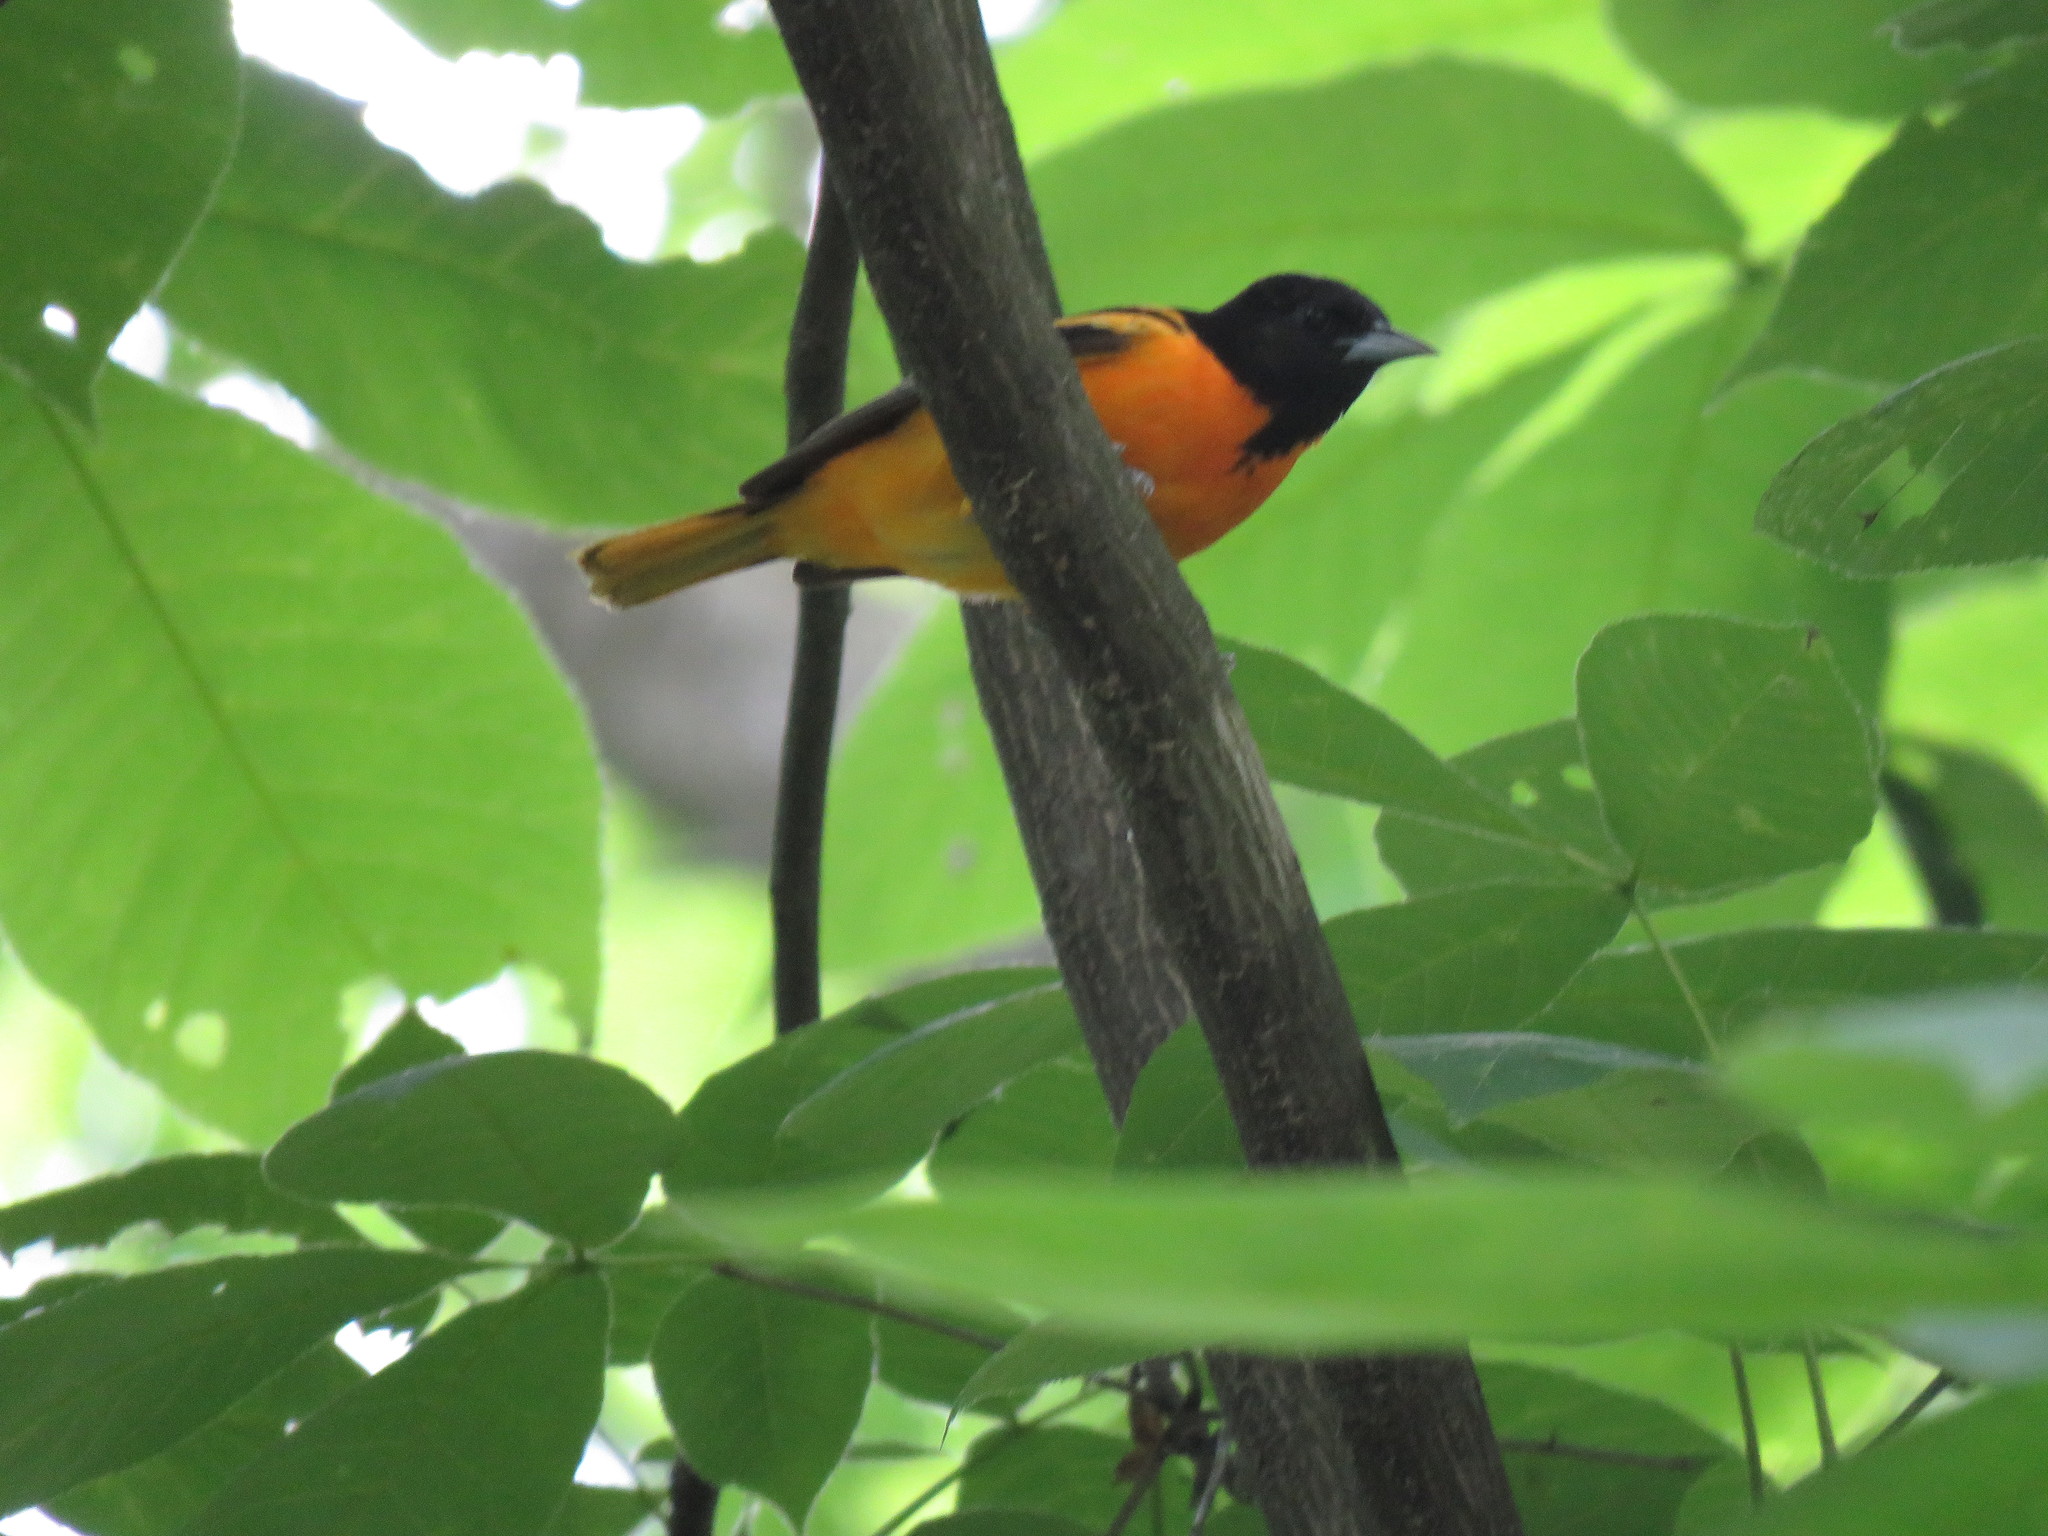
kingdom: Animalia
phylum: Chordata
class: Aves
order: Passeriformes
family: Icteridae
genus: Icterus
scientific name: Icterus galbula
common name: Baltimore oriole
